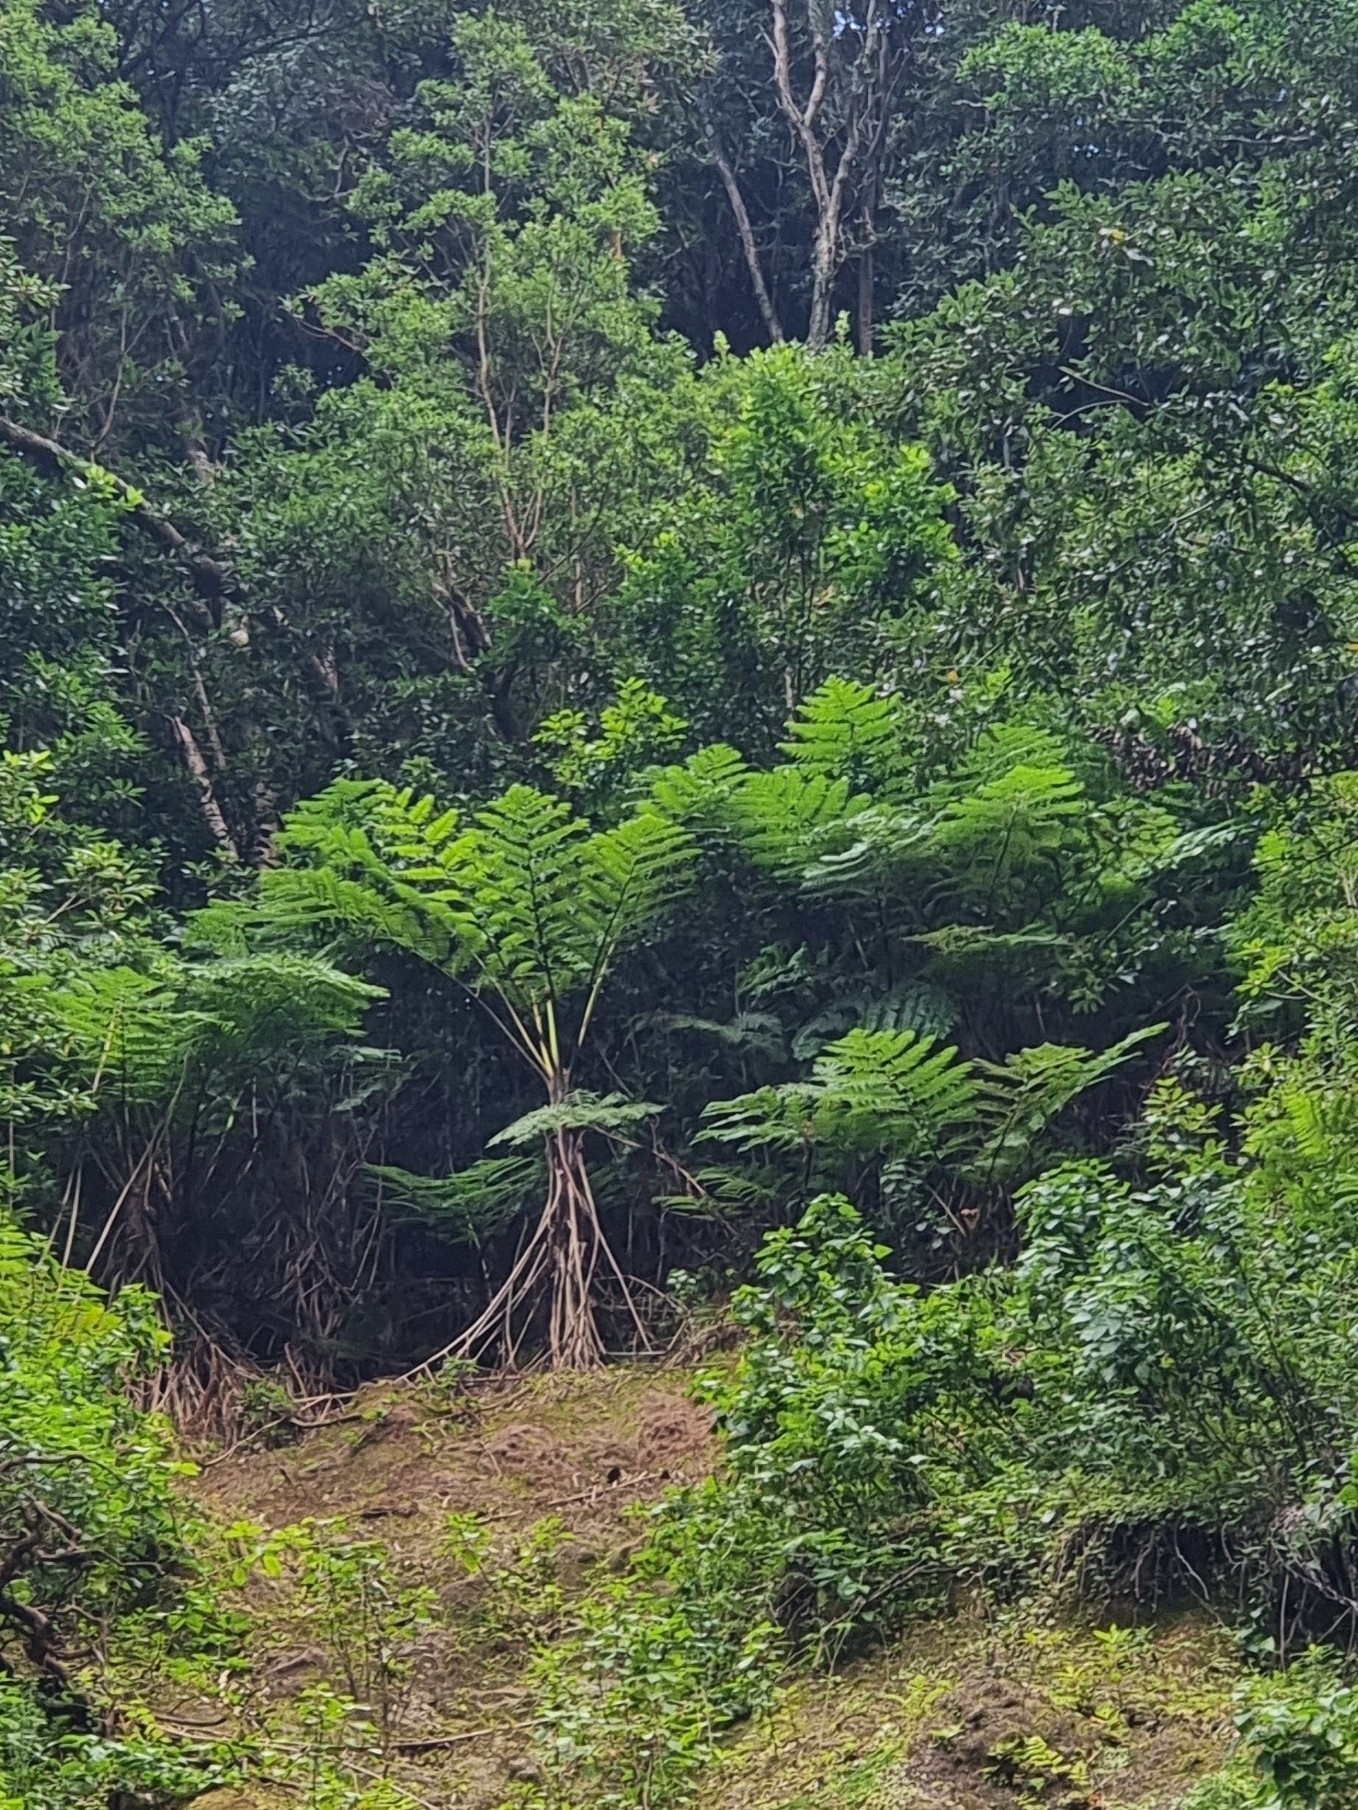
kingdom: Plantae
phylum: Tracheophyta
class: Polypodiopsida
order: Cyatheales
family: Cyatheaceae
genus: Sphaeropteris
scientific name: Sphaeropteris cooperi
